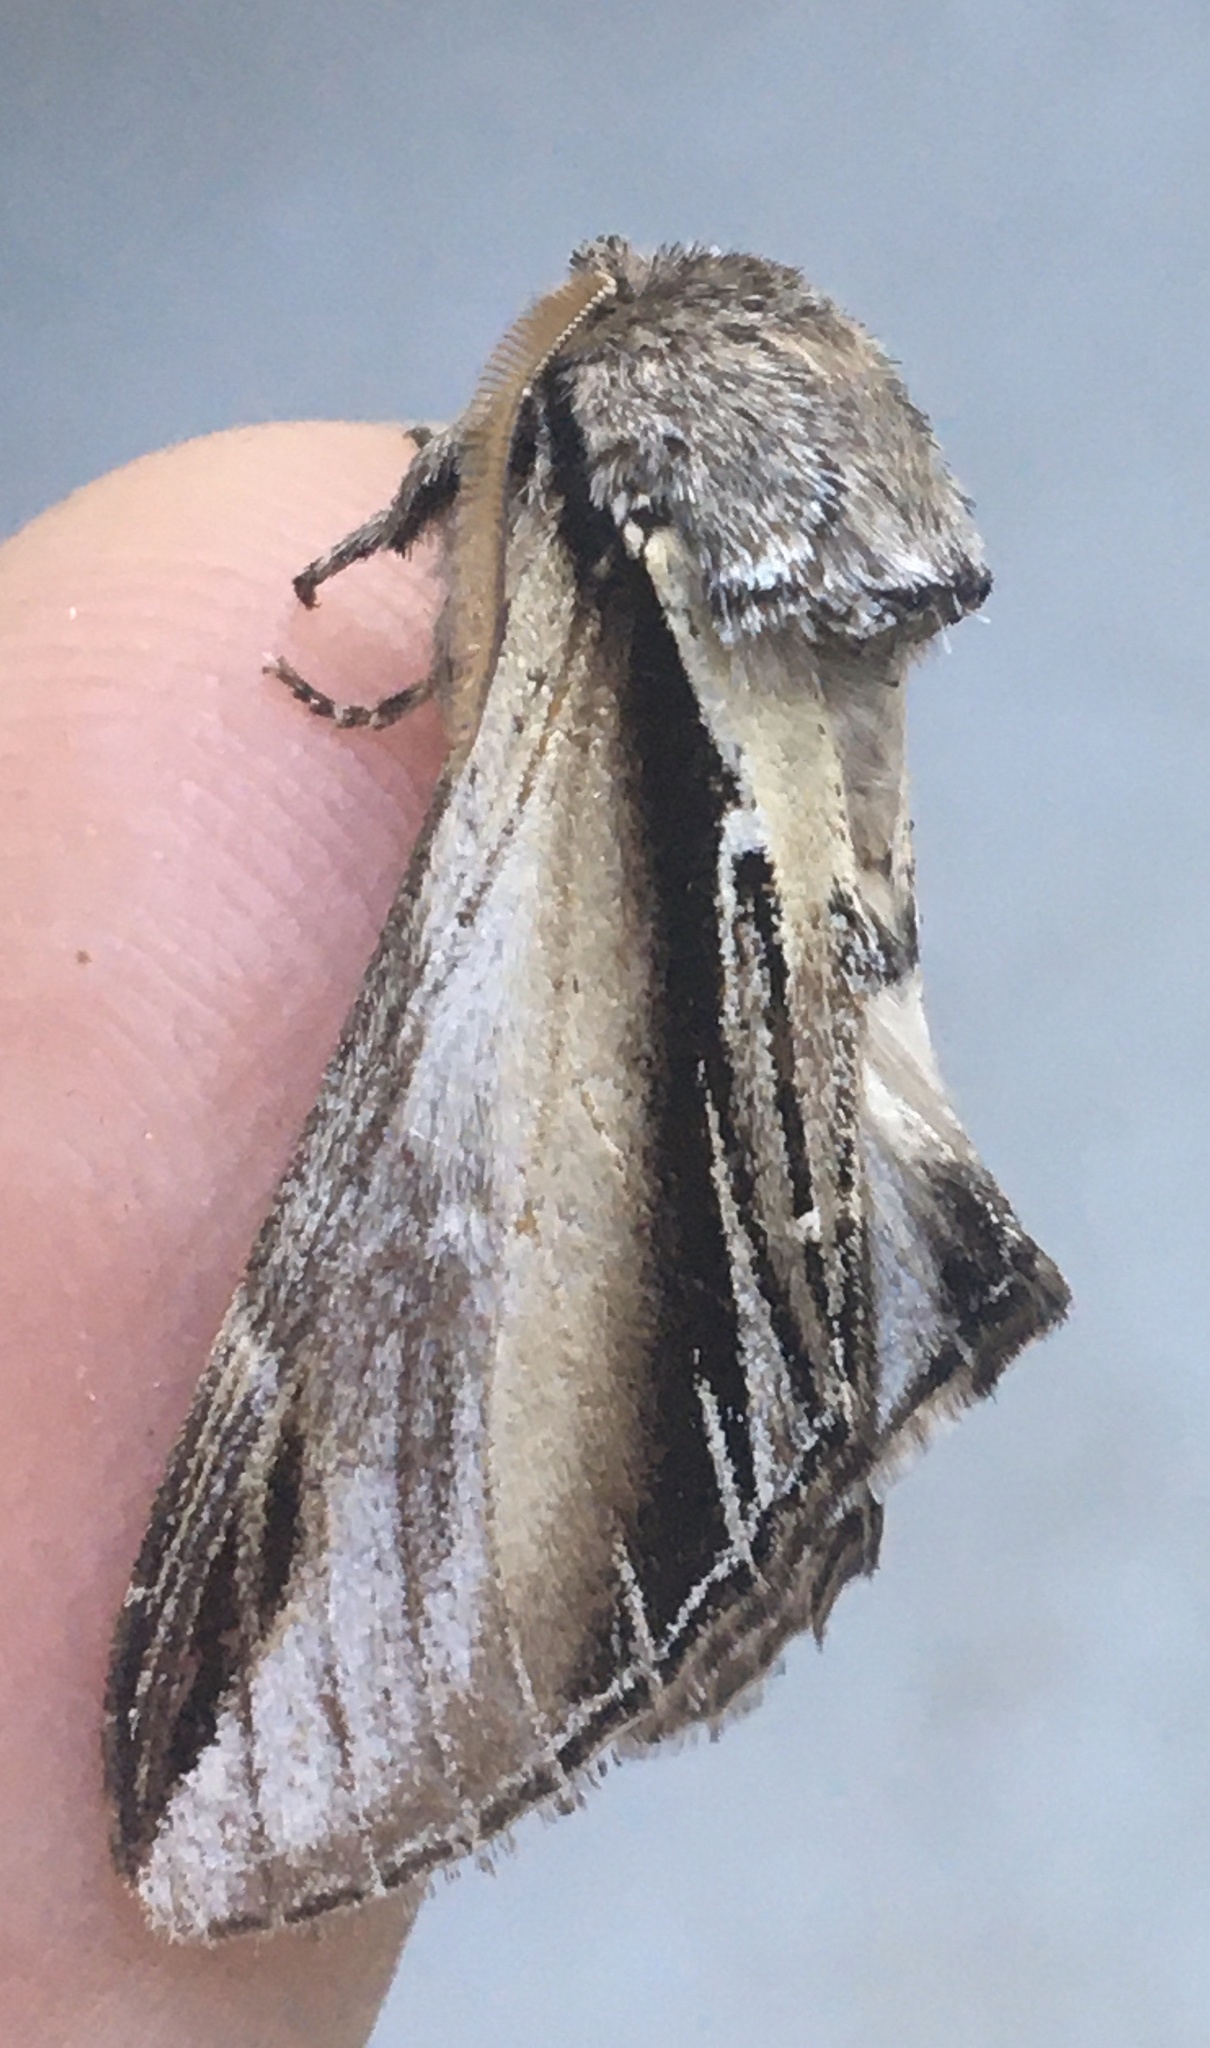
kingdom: Animalia
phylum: Arthropoda
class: Insecta
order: Lepidoptera
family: Notodontidae
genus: Pheosia
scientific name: Pheosia gnoma
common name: Lesser swallow prominent
